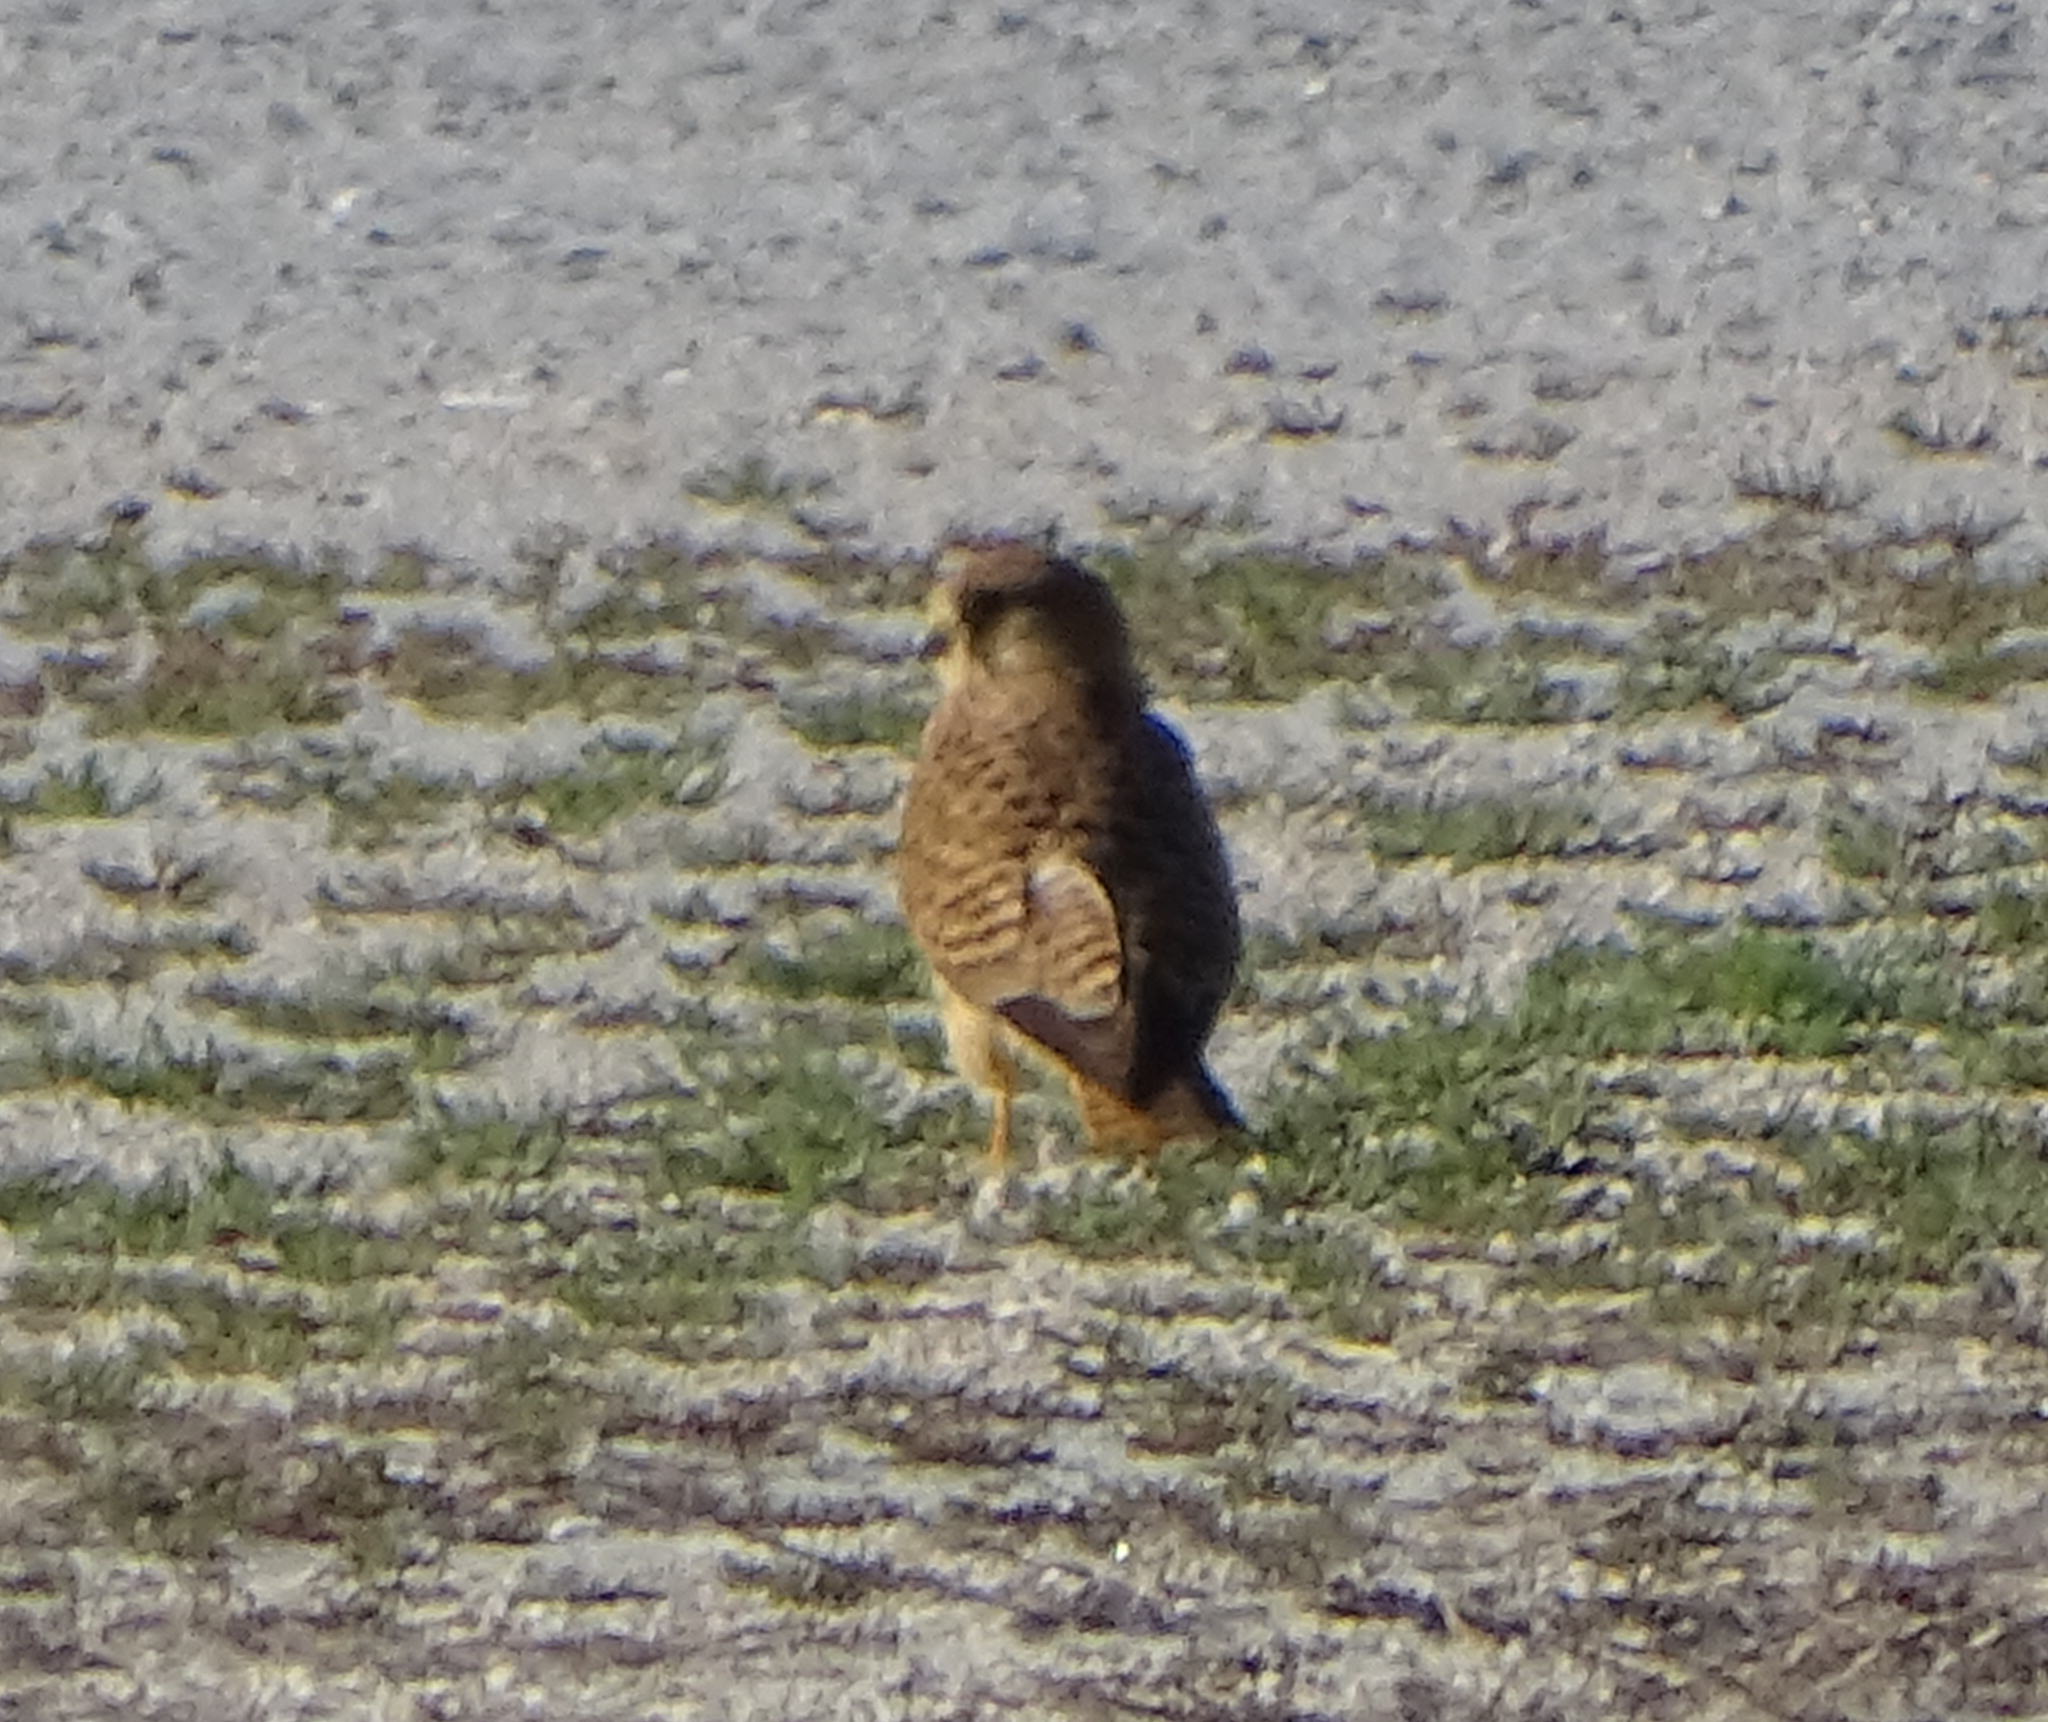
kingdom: Animalia
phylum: Chordata
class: Aves
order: Falconiformes
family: Falconidae
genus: Falco
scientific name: Falco tinnunculus
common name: Common kestrel
